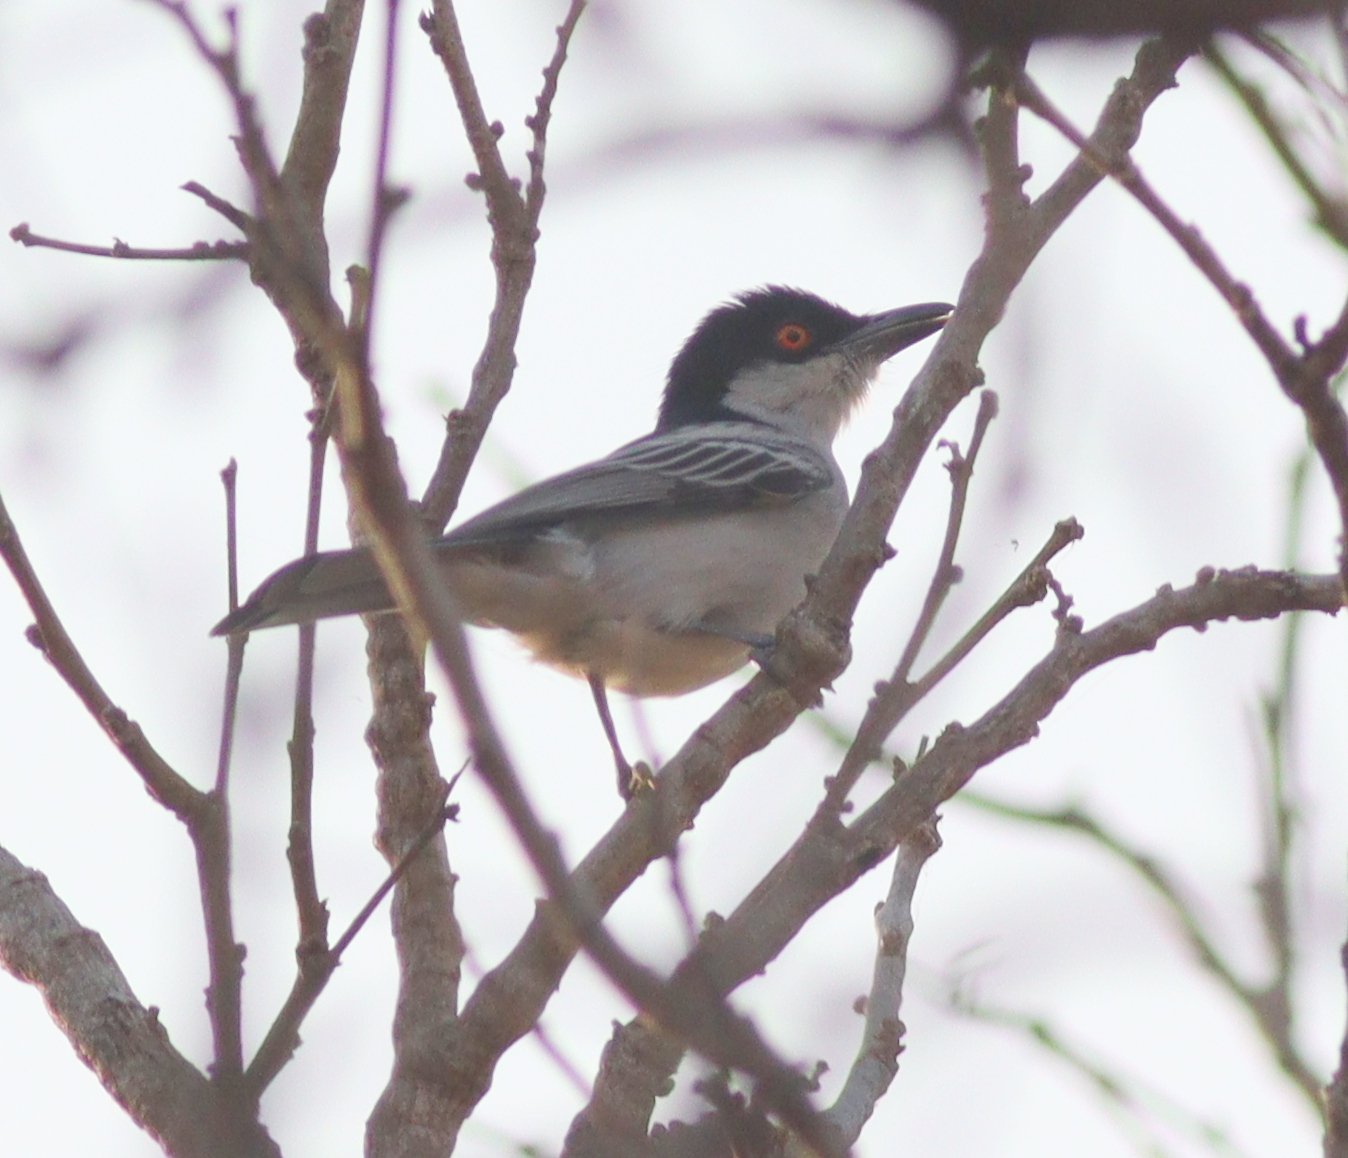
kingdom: Animalia
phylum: Chordata
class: Aves
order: Passeriformes
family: Malaconotidae
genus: Dryoscopus
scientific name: Dryoscopus gambensis
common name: Northern puffback
